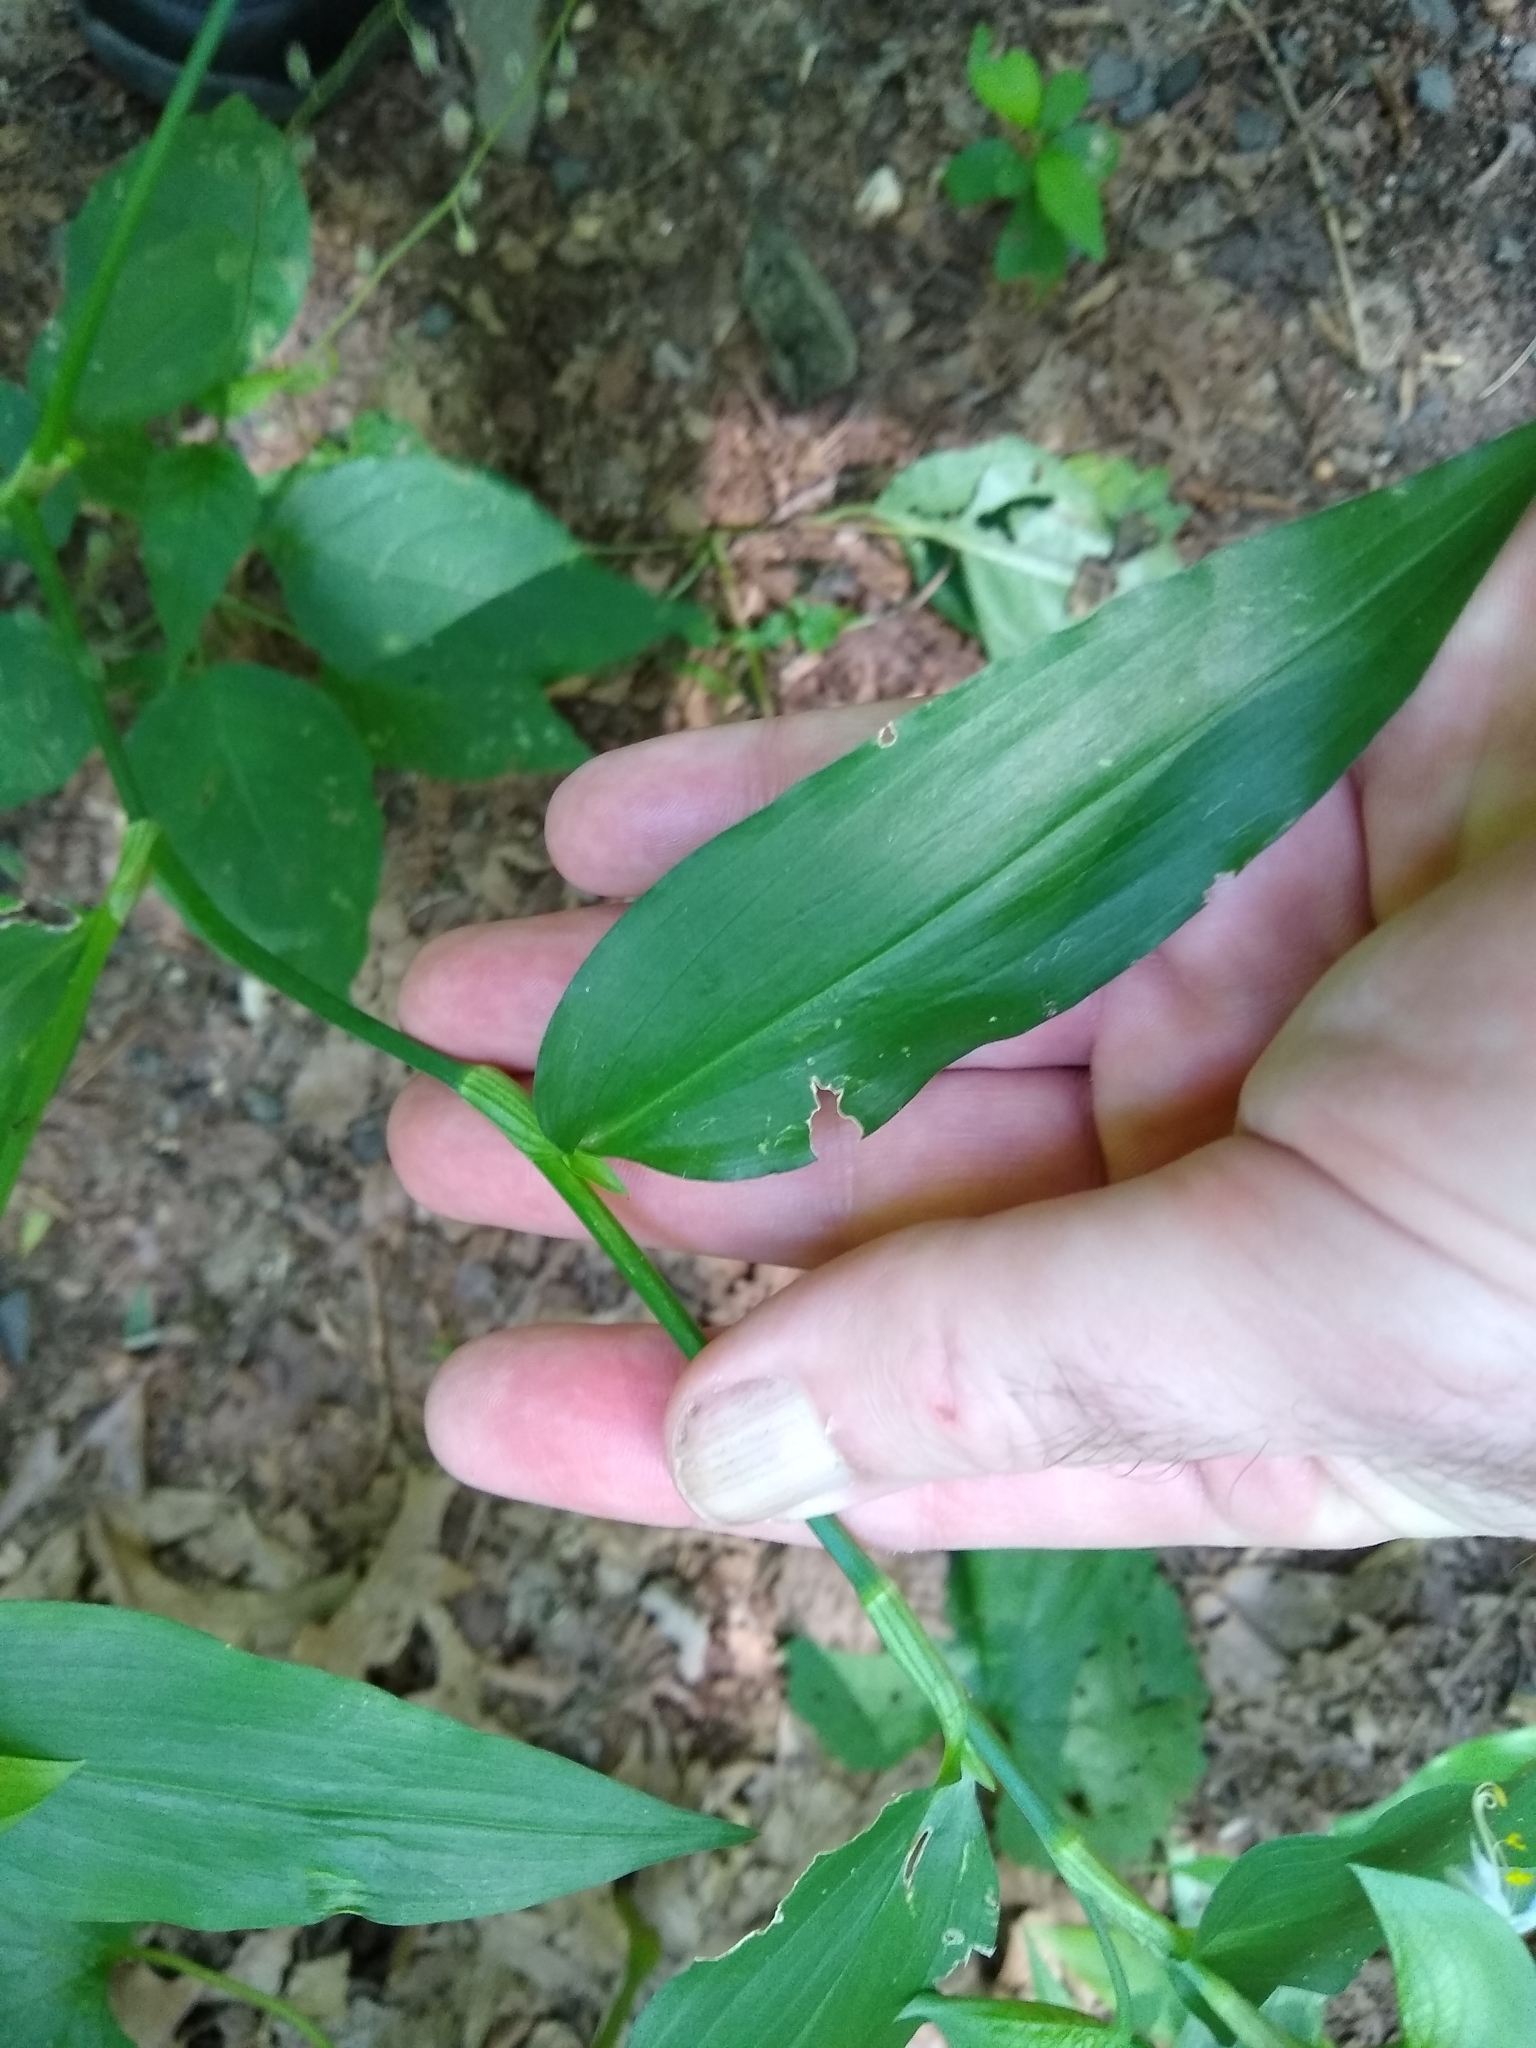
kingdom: Plantae
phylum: Tracheophyta
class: Liliopsida
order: Commelinales
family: Commelinaceae
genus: Commelina
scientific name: Commelina communis
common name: Asiatic dayflower
